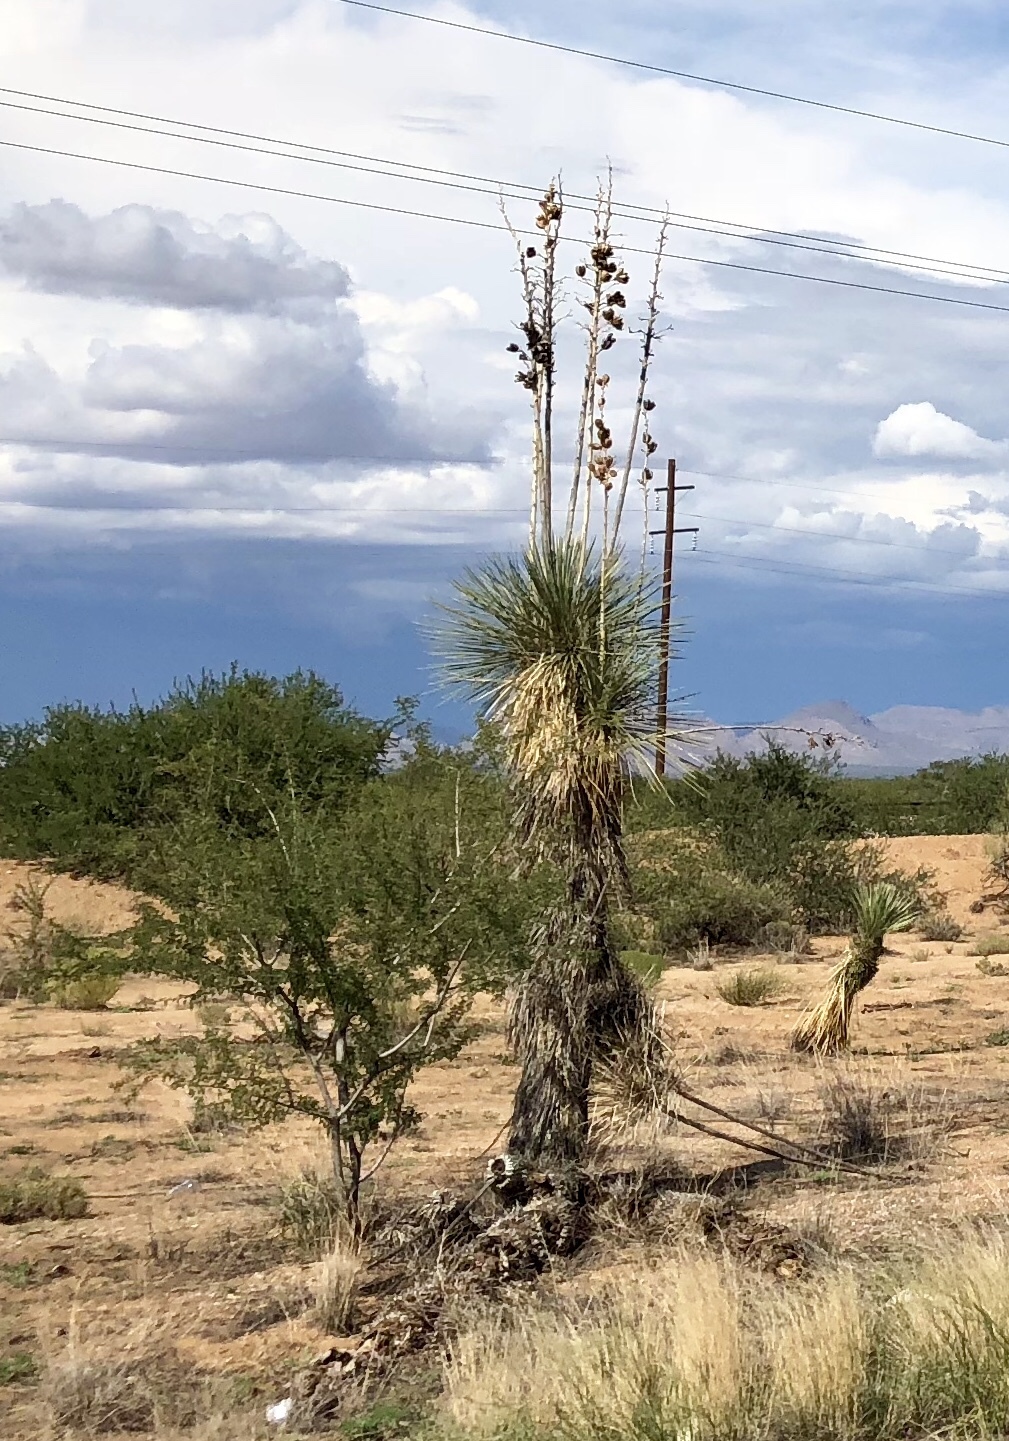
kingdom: Plantae
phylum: Tracheophyta
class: Liliopsida
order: Asparagales
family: Asparagaceae
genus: Yucca
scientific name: Yucca elata
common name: Palmella
